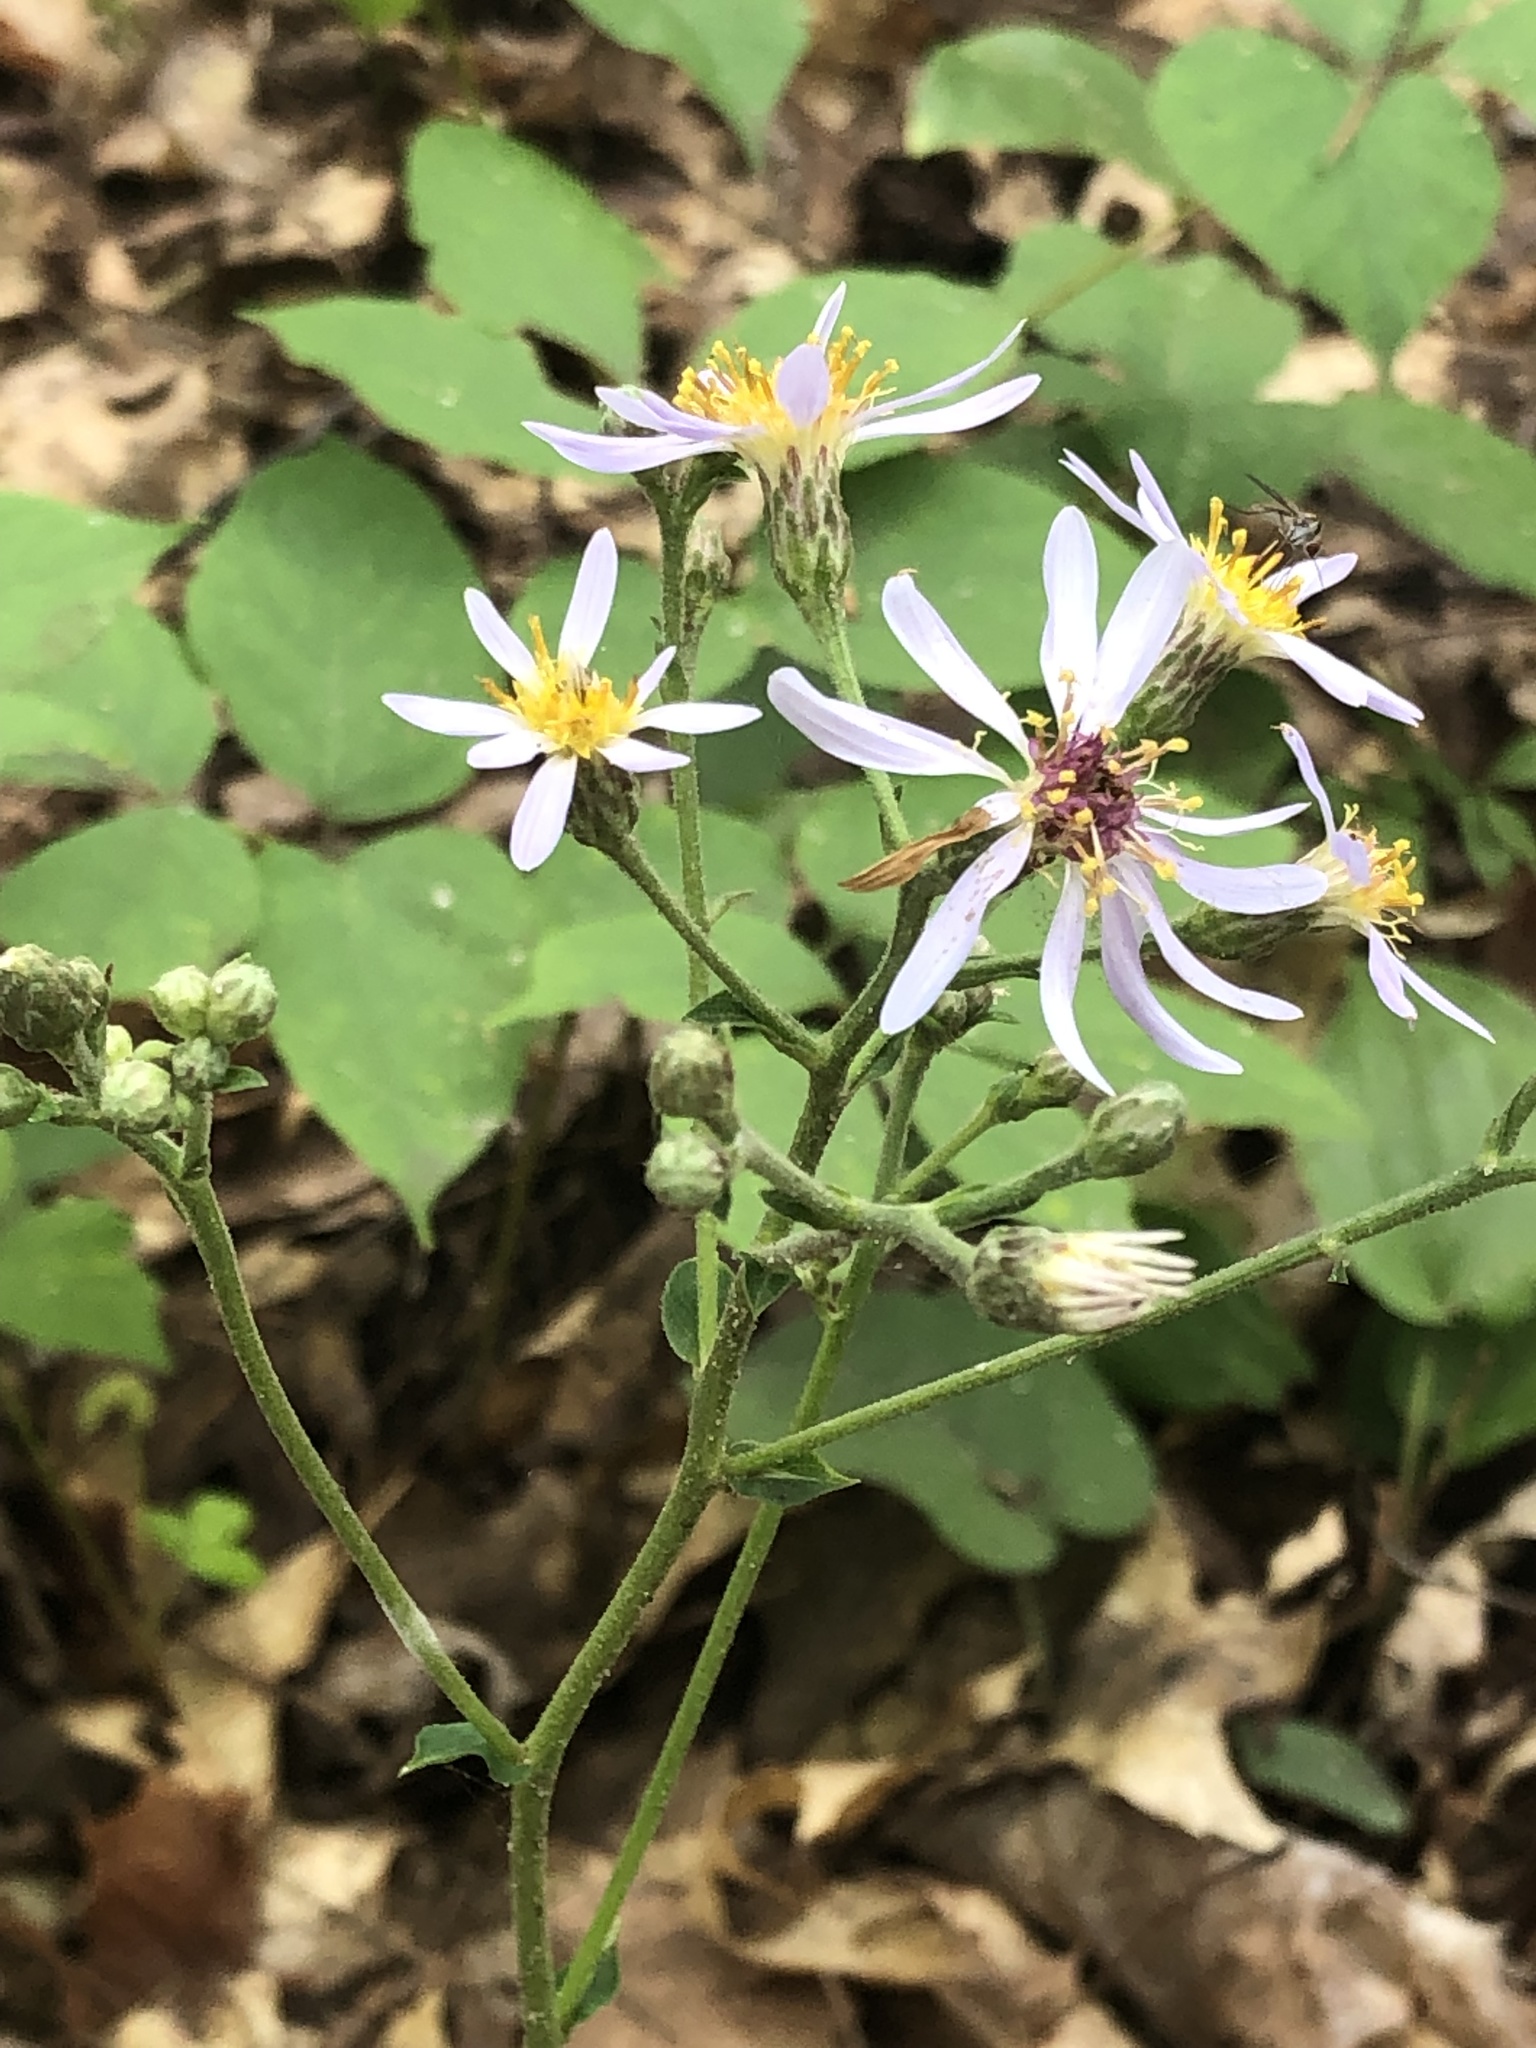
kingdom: Plantae
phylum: Tracheophyta
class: Magnoliopsida
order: Asterales
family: Asteraceae
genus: Eurybia
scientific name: Eurybia macrophylla
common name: Big-leaved aster
